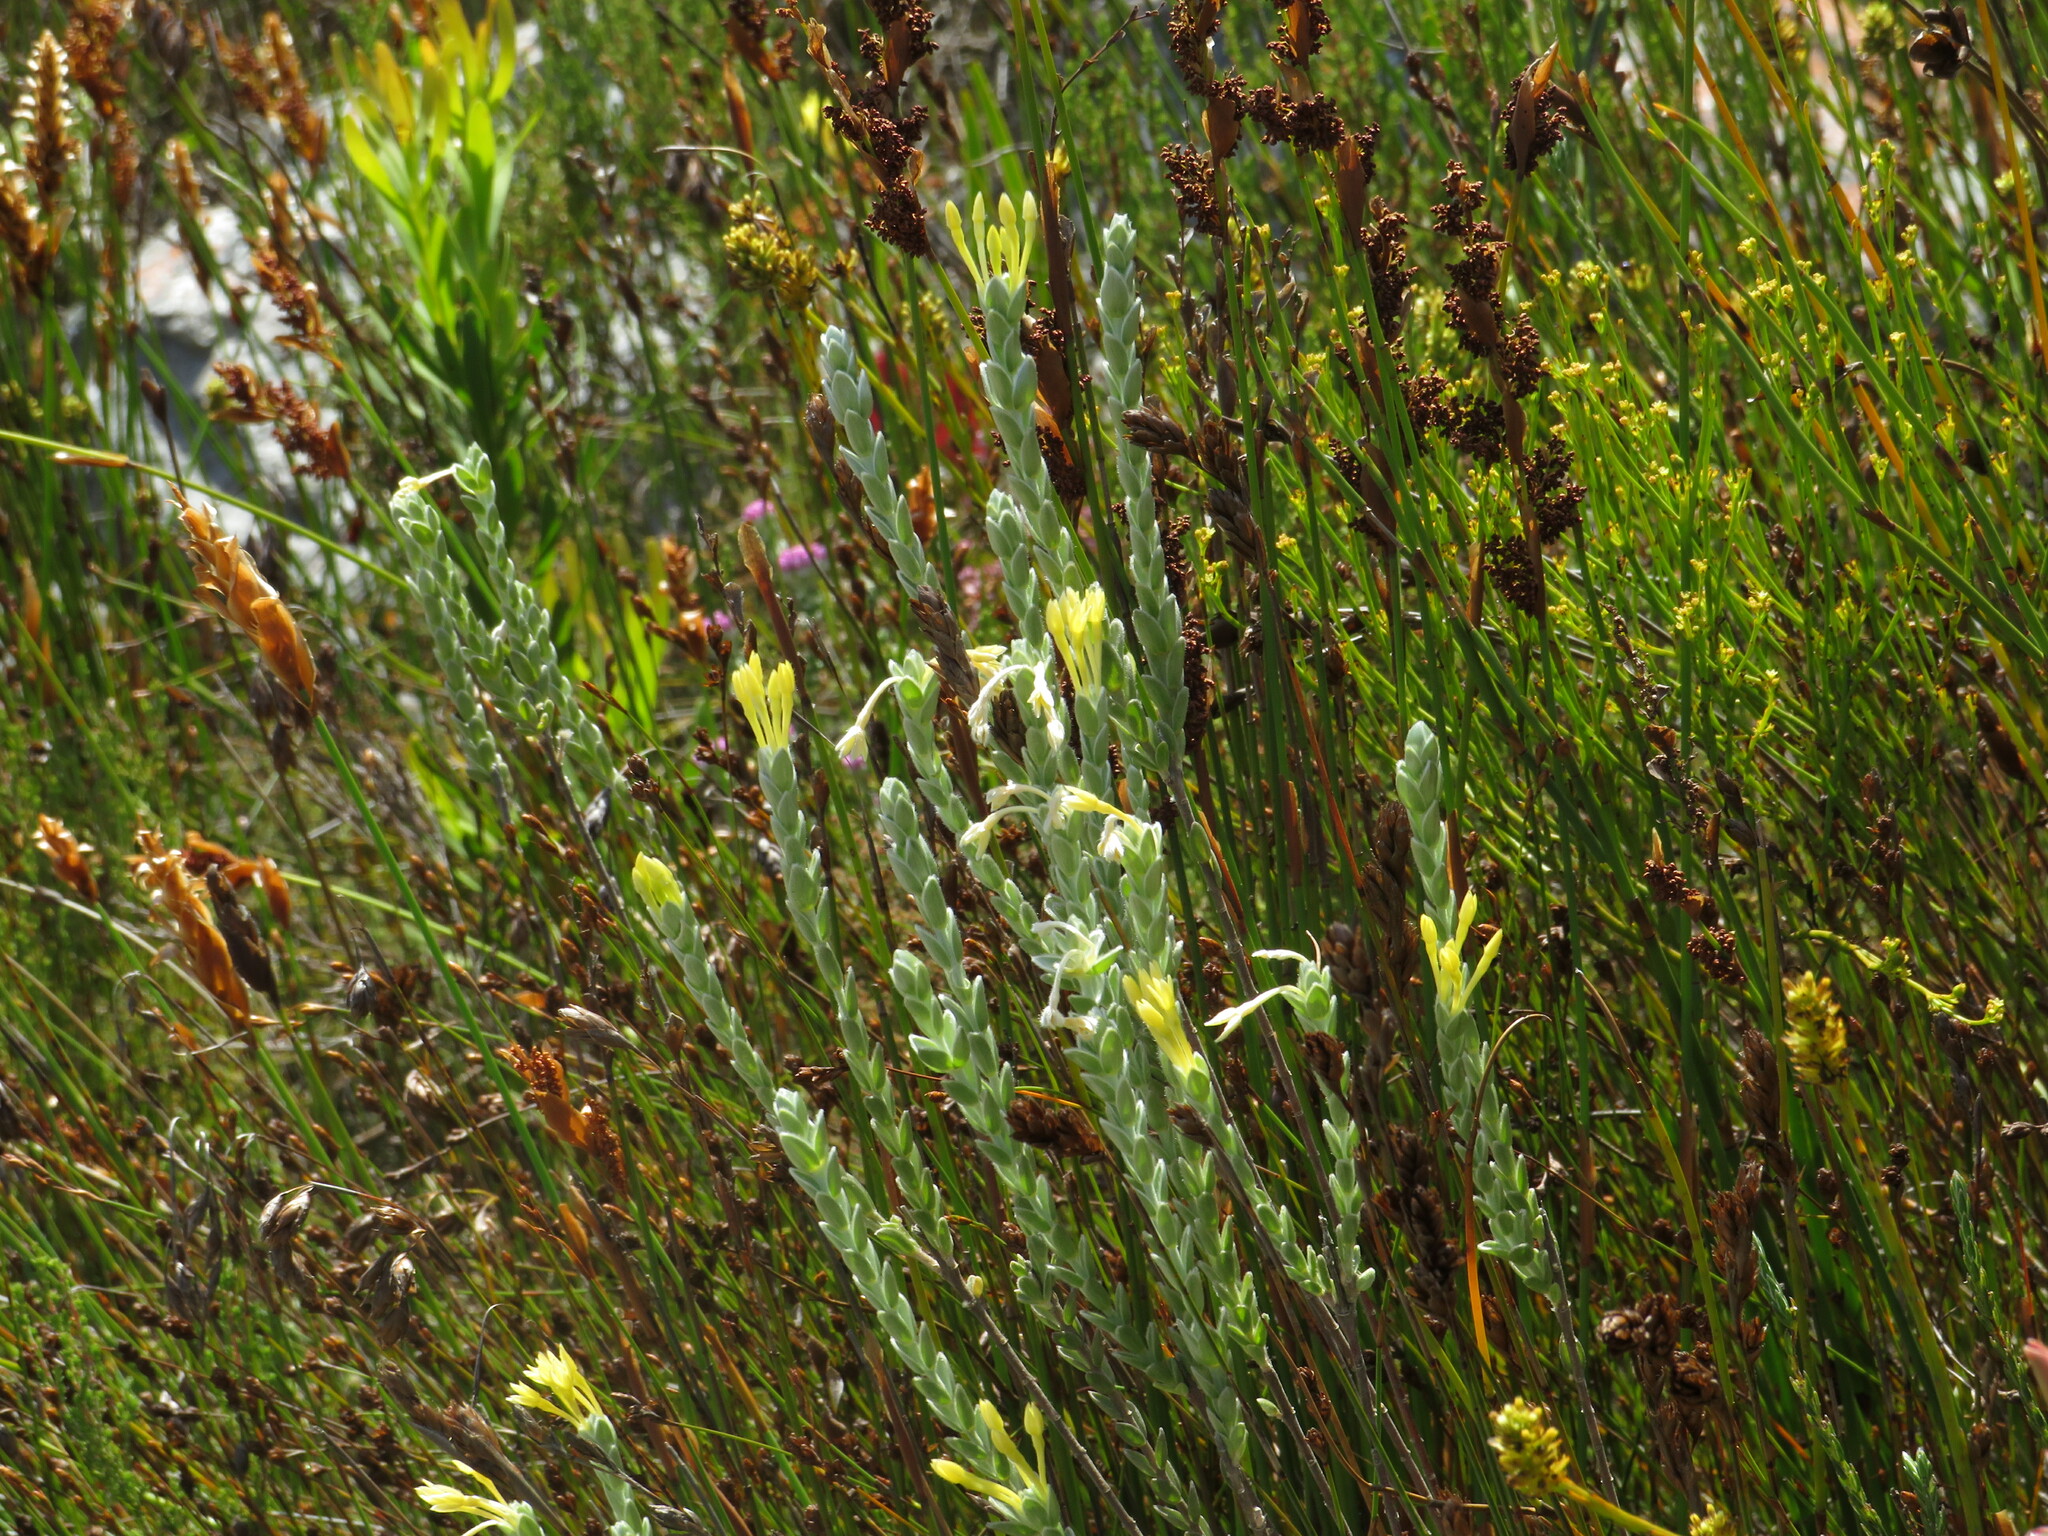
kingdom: Plantae
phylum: Tracheophyta
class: Magnoliopsida
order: Malvales
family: Thymelaeaceae
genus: Gnidia
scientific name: Gnidia anomala
